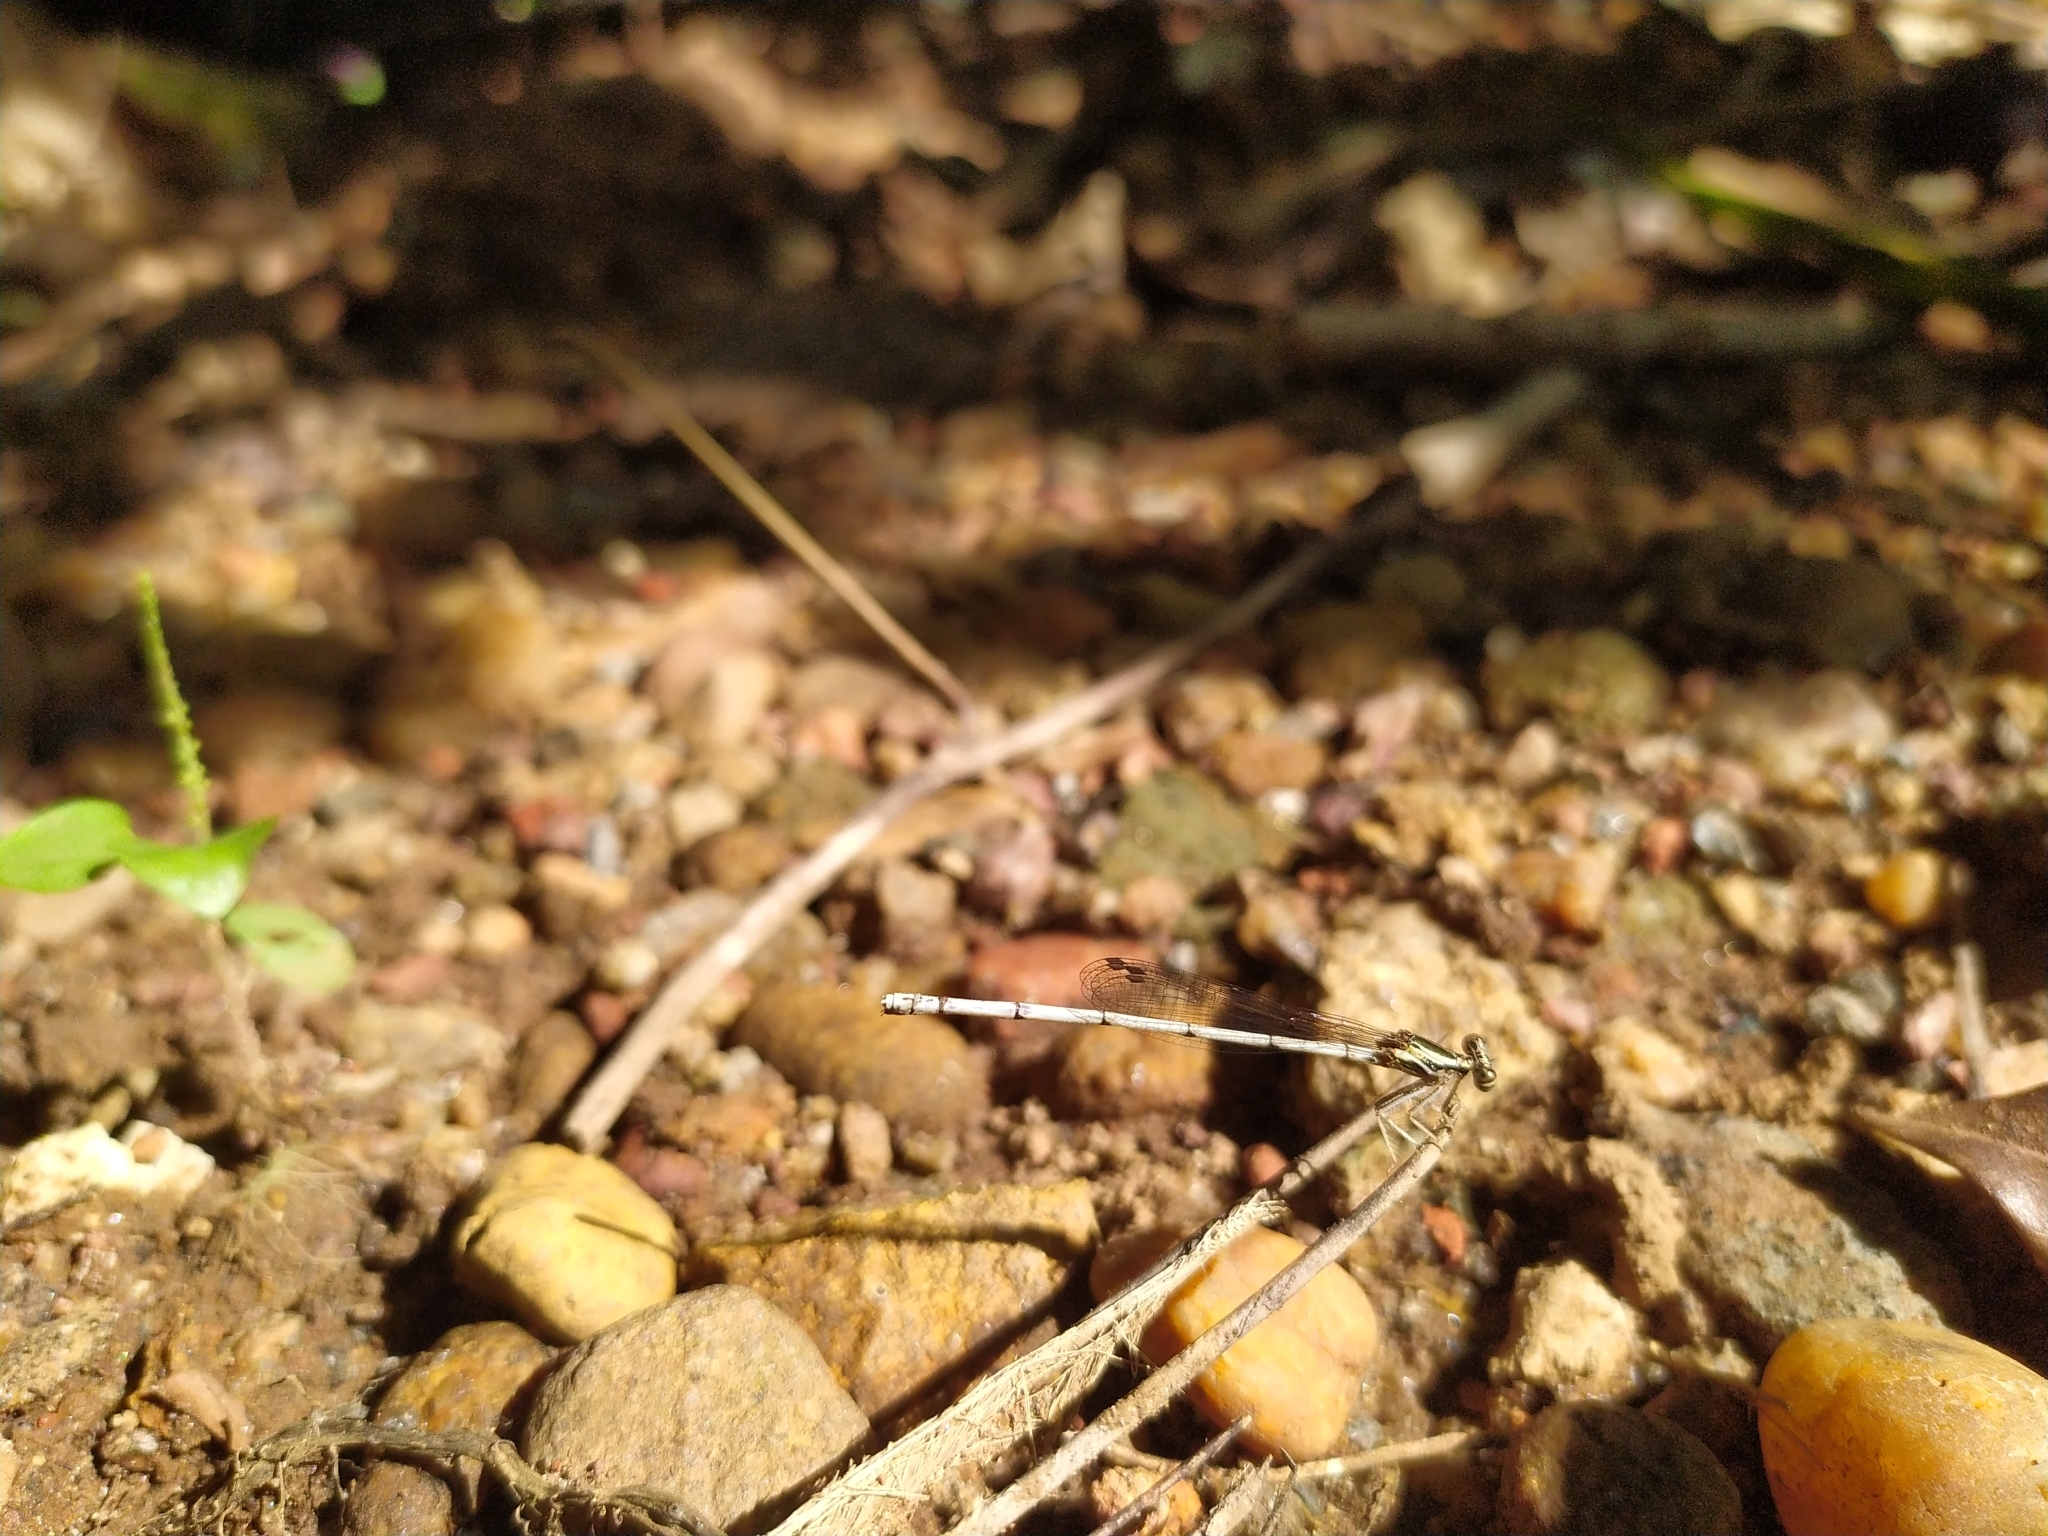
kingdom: Animalia
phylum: Arthropoda
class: Insecta
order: Odonata
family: Platycnemididae
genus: Copera
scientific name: Copera marginipes
